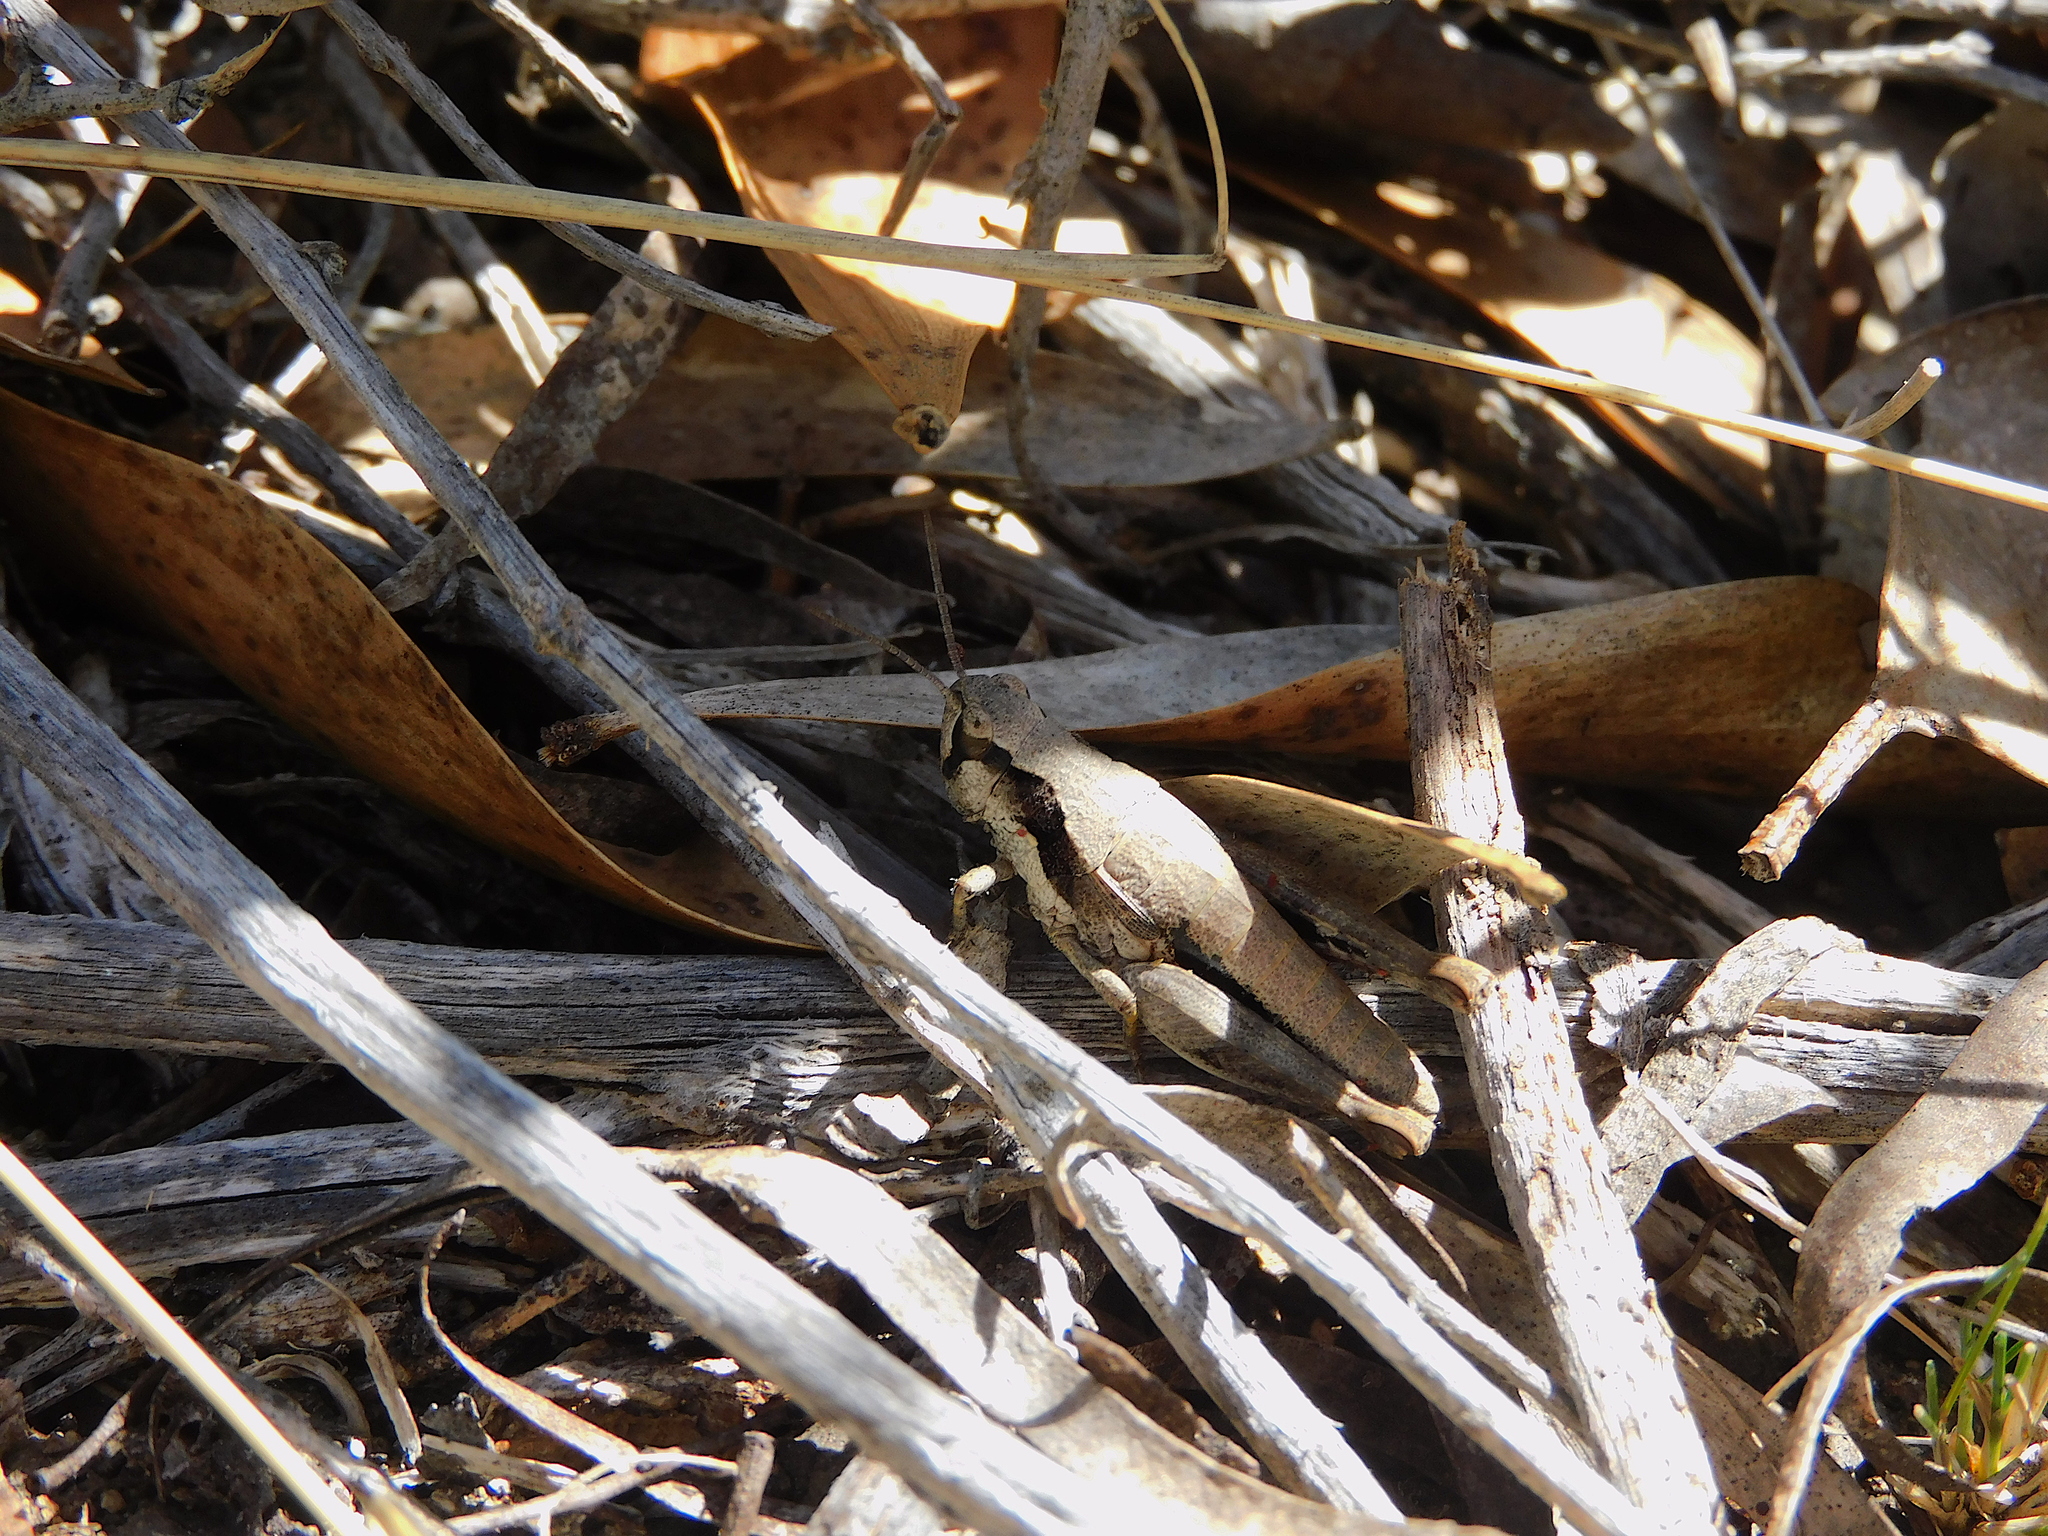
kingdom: Animalia
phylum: Arthropoda
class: Insecta
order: Orthoptera
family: Acrididae
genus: Tasmaniacris
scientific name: Tasmaniacris tasmaniensis
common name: Tasmanian grasshopper
